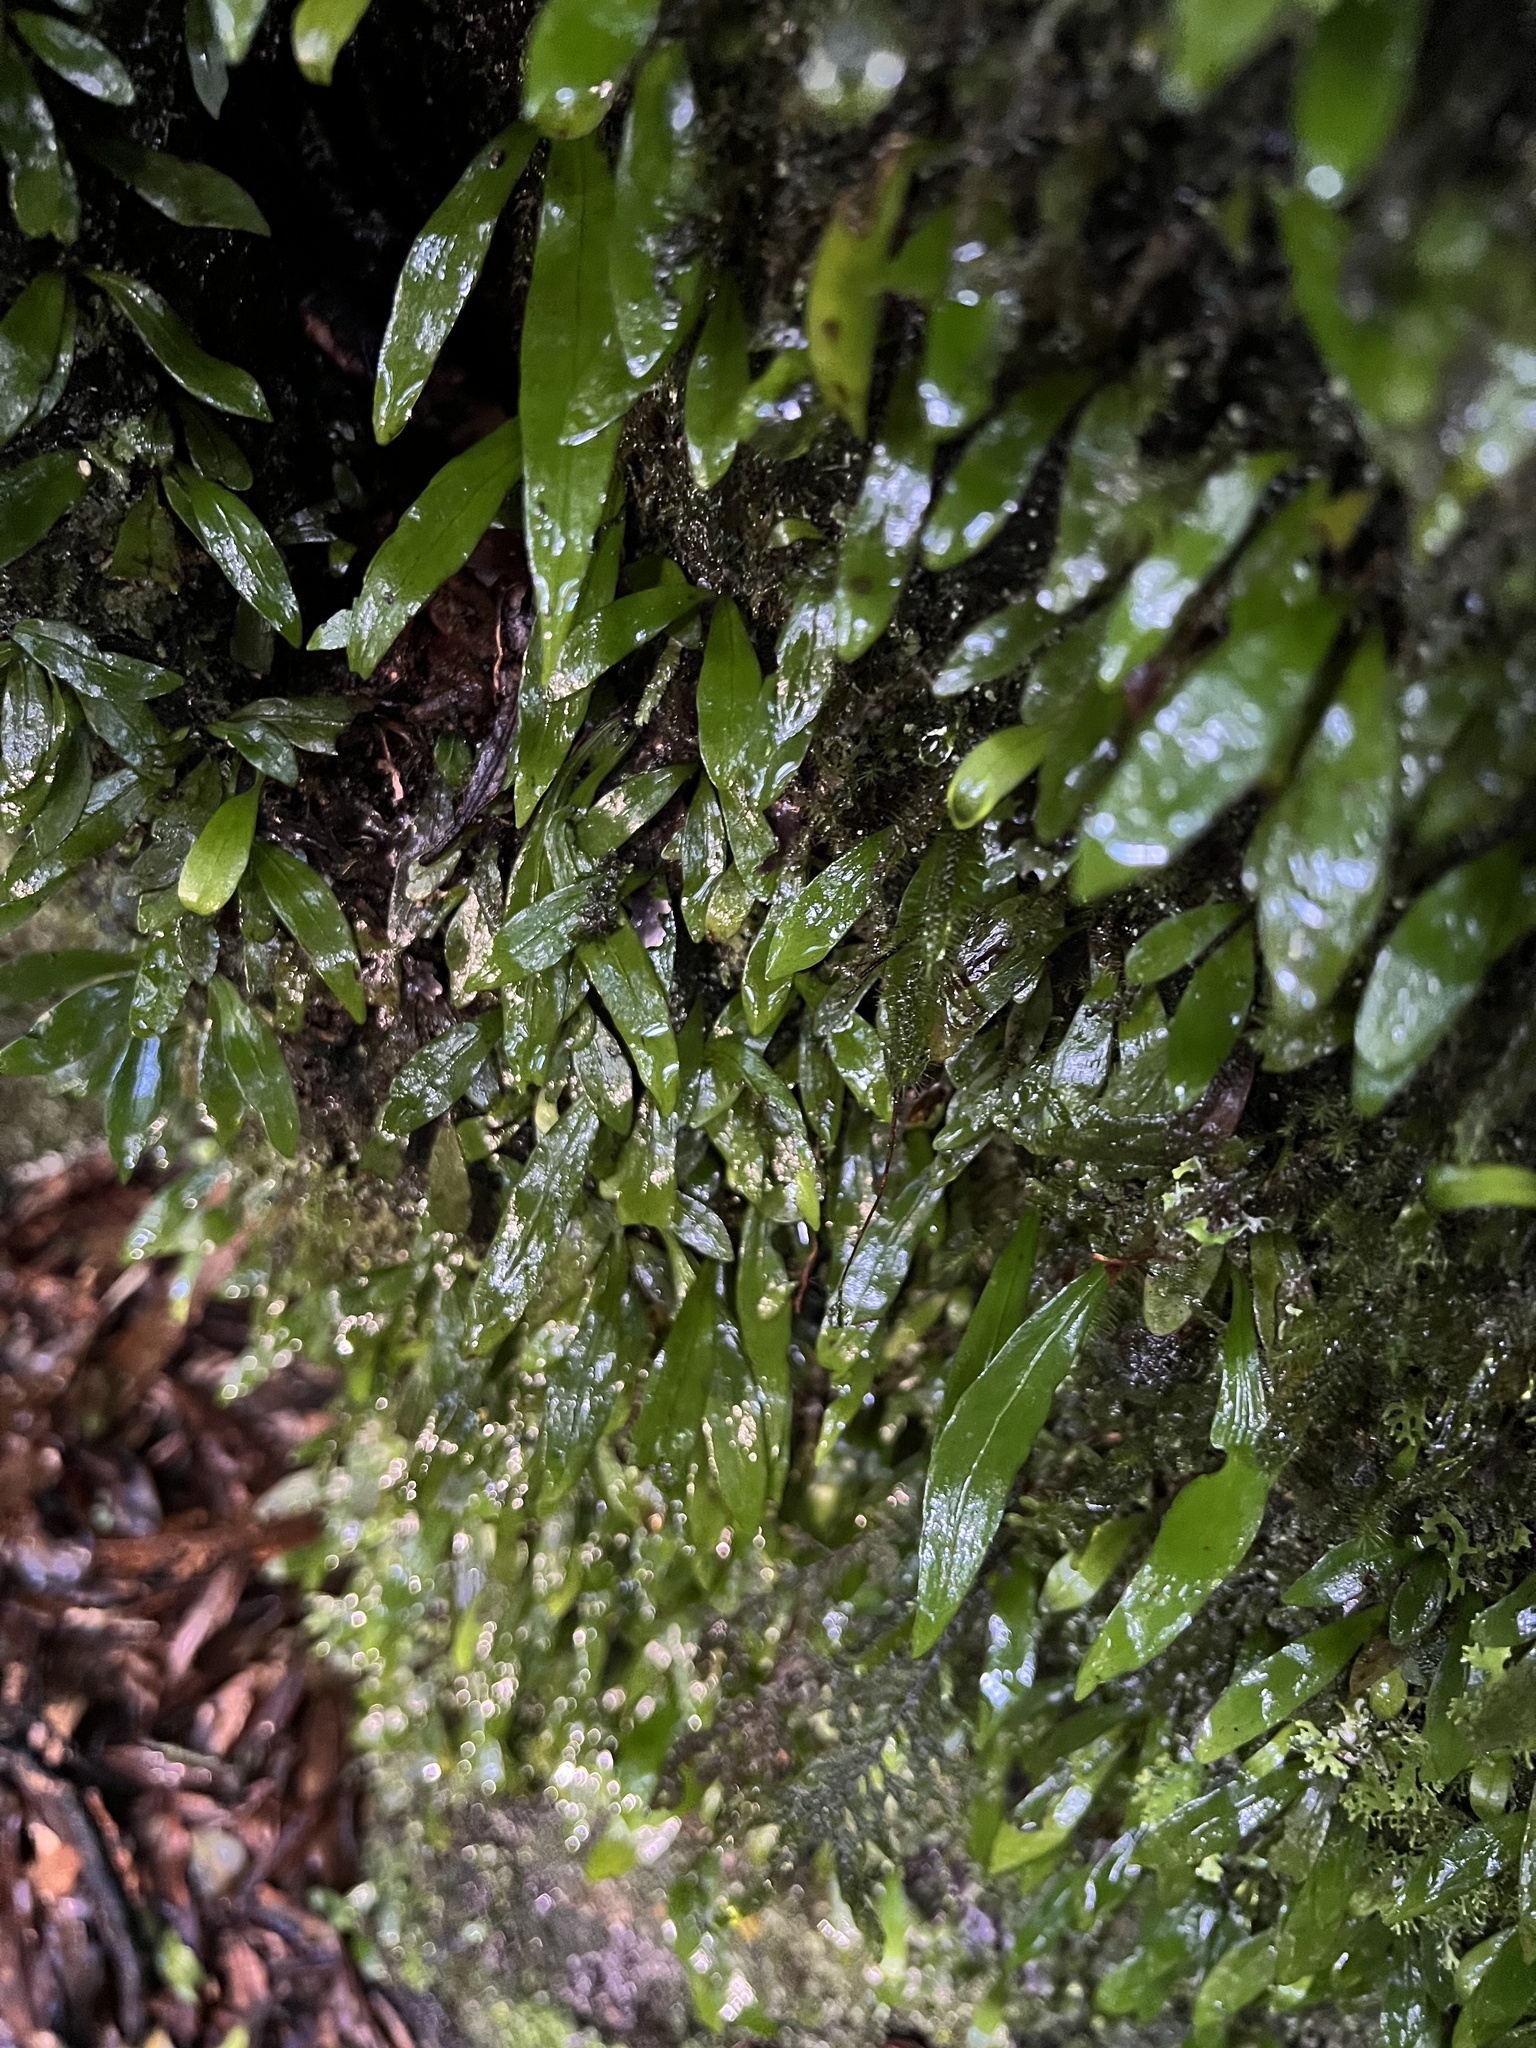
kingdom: Plantae
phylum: Tracheophyta
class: Polypodiopsida
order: Polypodiales
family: Polypodiaceae
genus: Loxogramme
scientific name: Loxogramme dictyopteris
